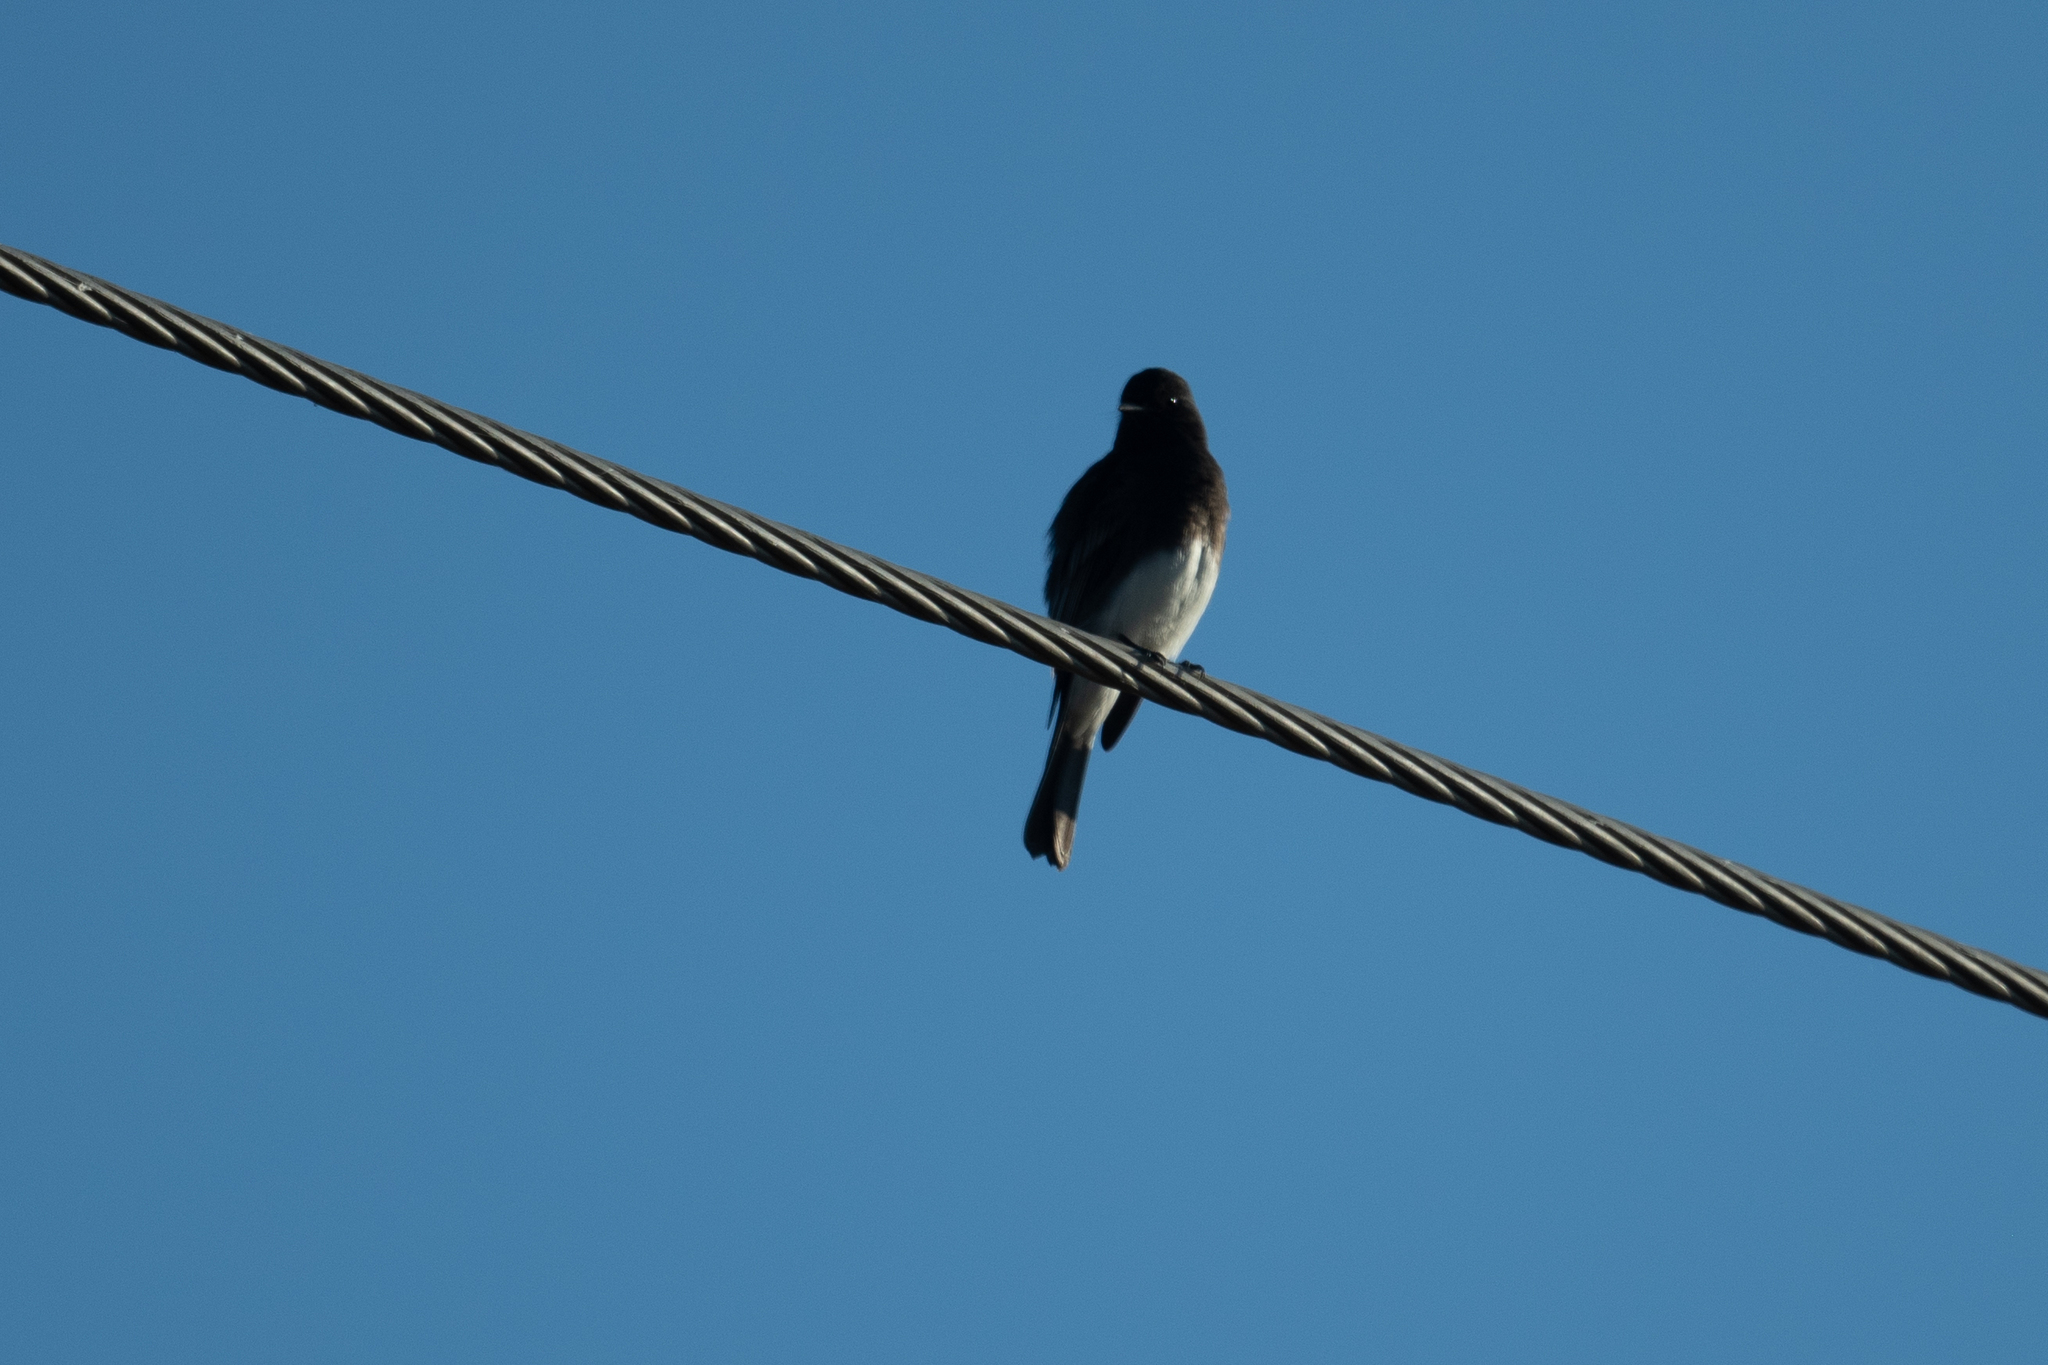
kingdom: Animalia
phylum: Chordata
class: Aves
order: Passeriformes
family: Tyrannidae
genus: Sayornis
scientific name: Sayornis nigricans
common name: Black phoebe
